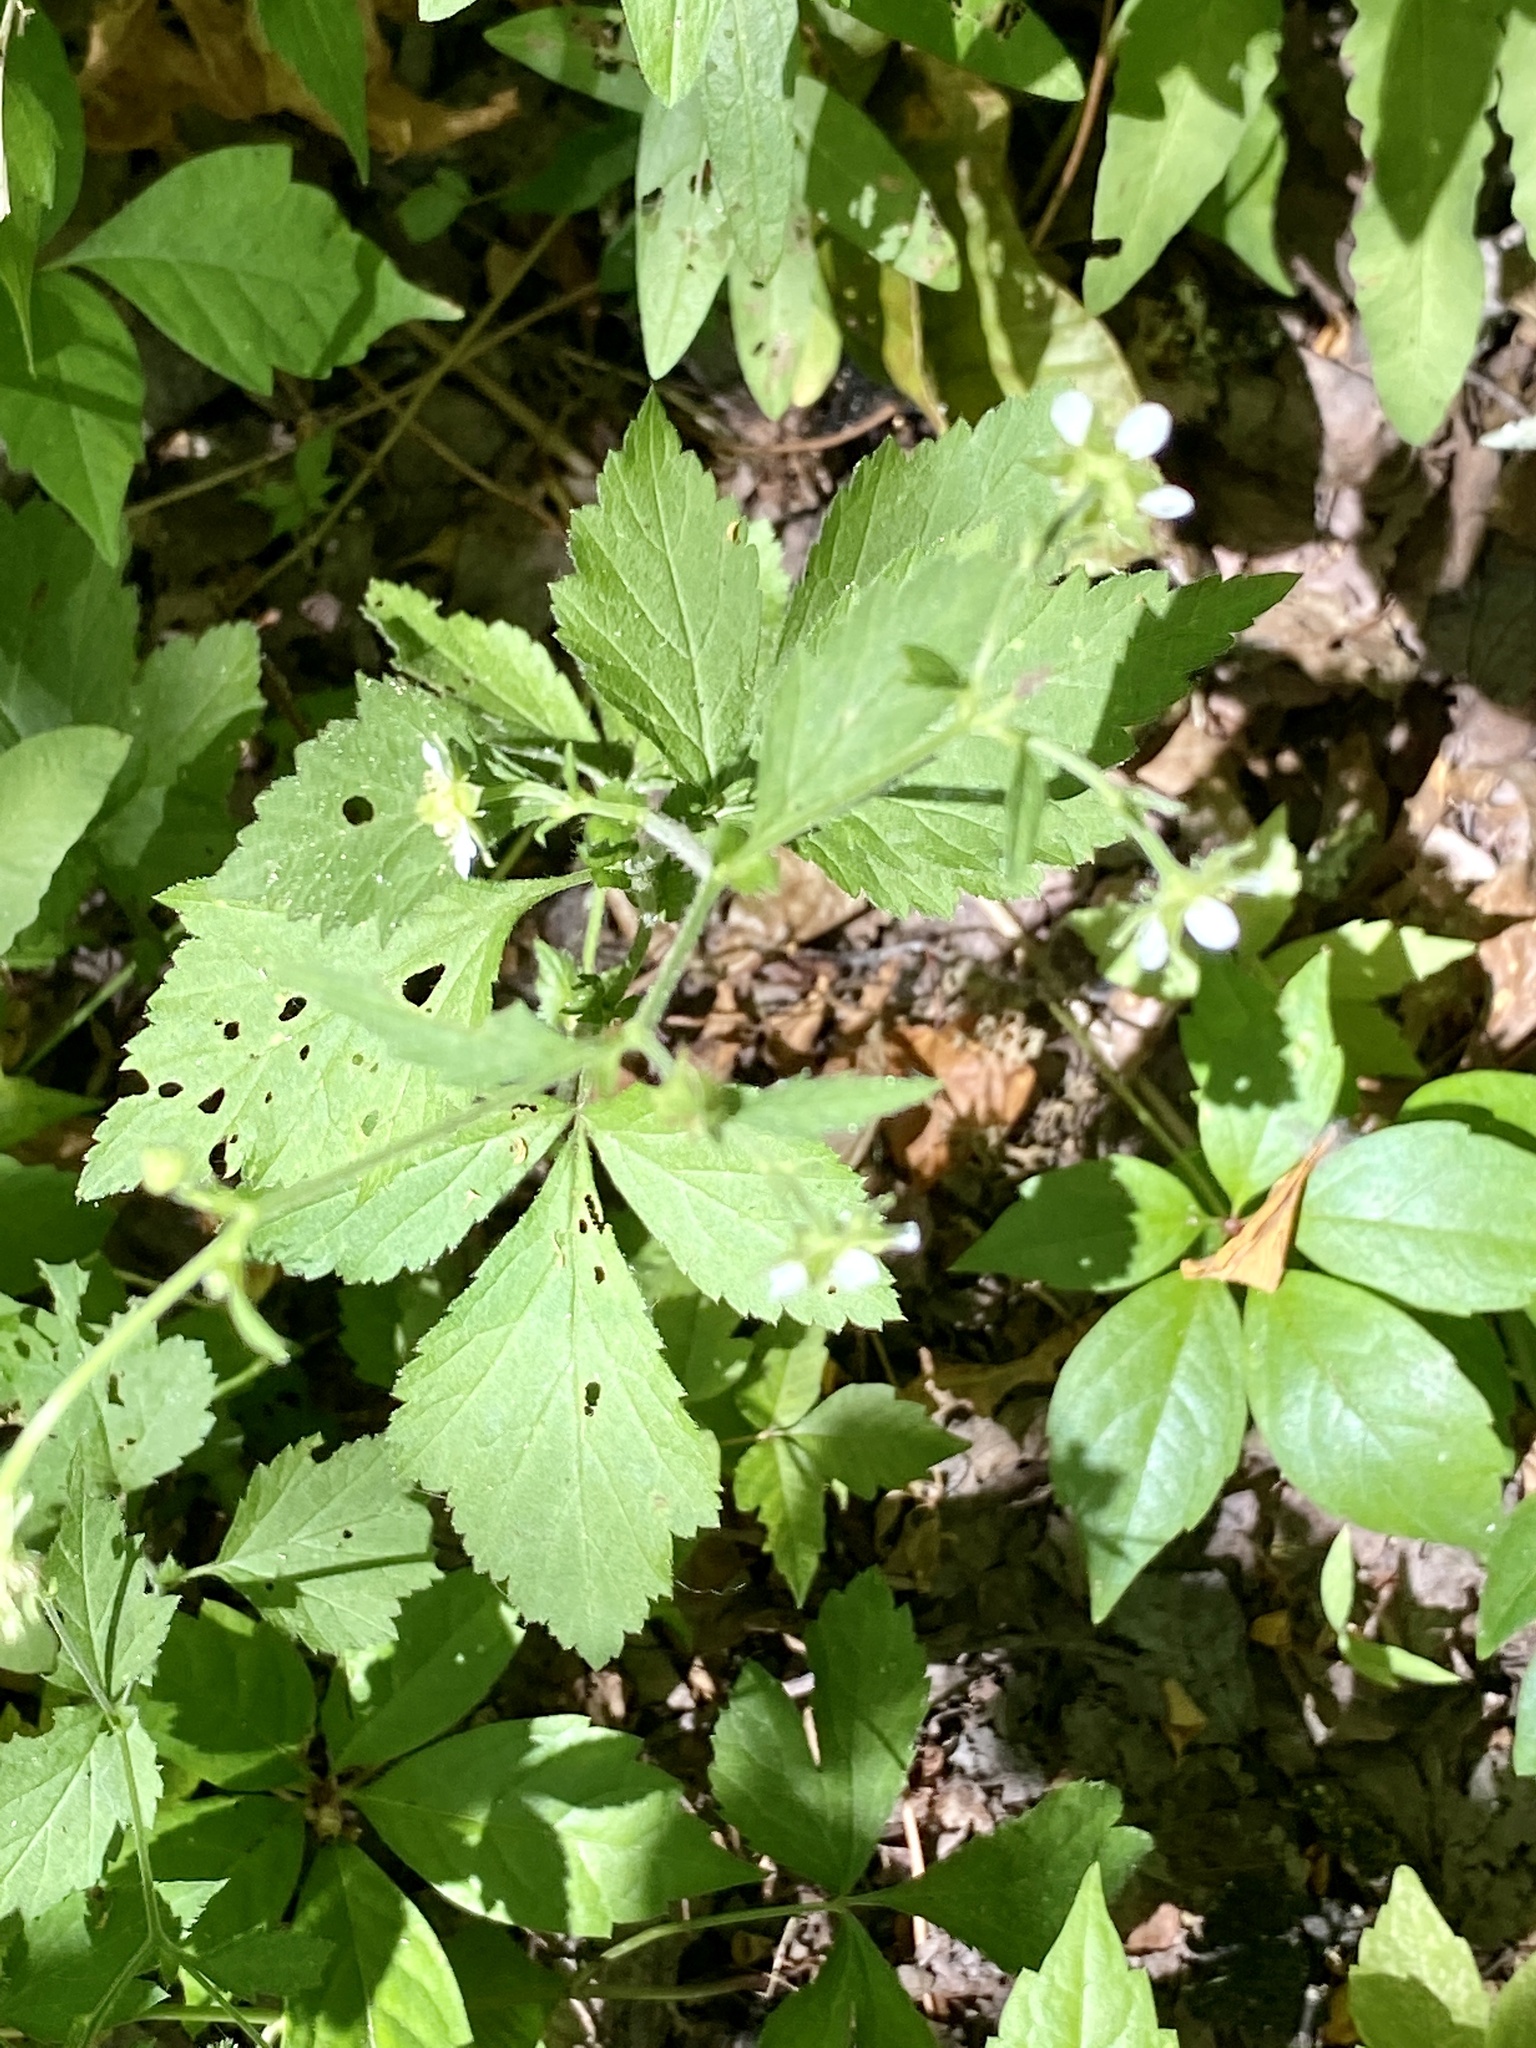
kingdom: Plantae
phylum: Tracheophyta
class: Magnoliopsida
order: Rosales
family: Rosaceae
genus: Geum
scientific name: Geum canadense
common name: White avens
